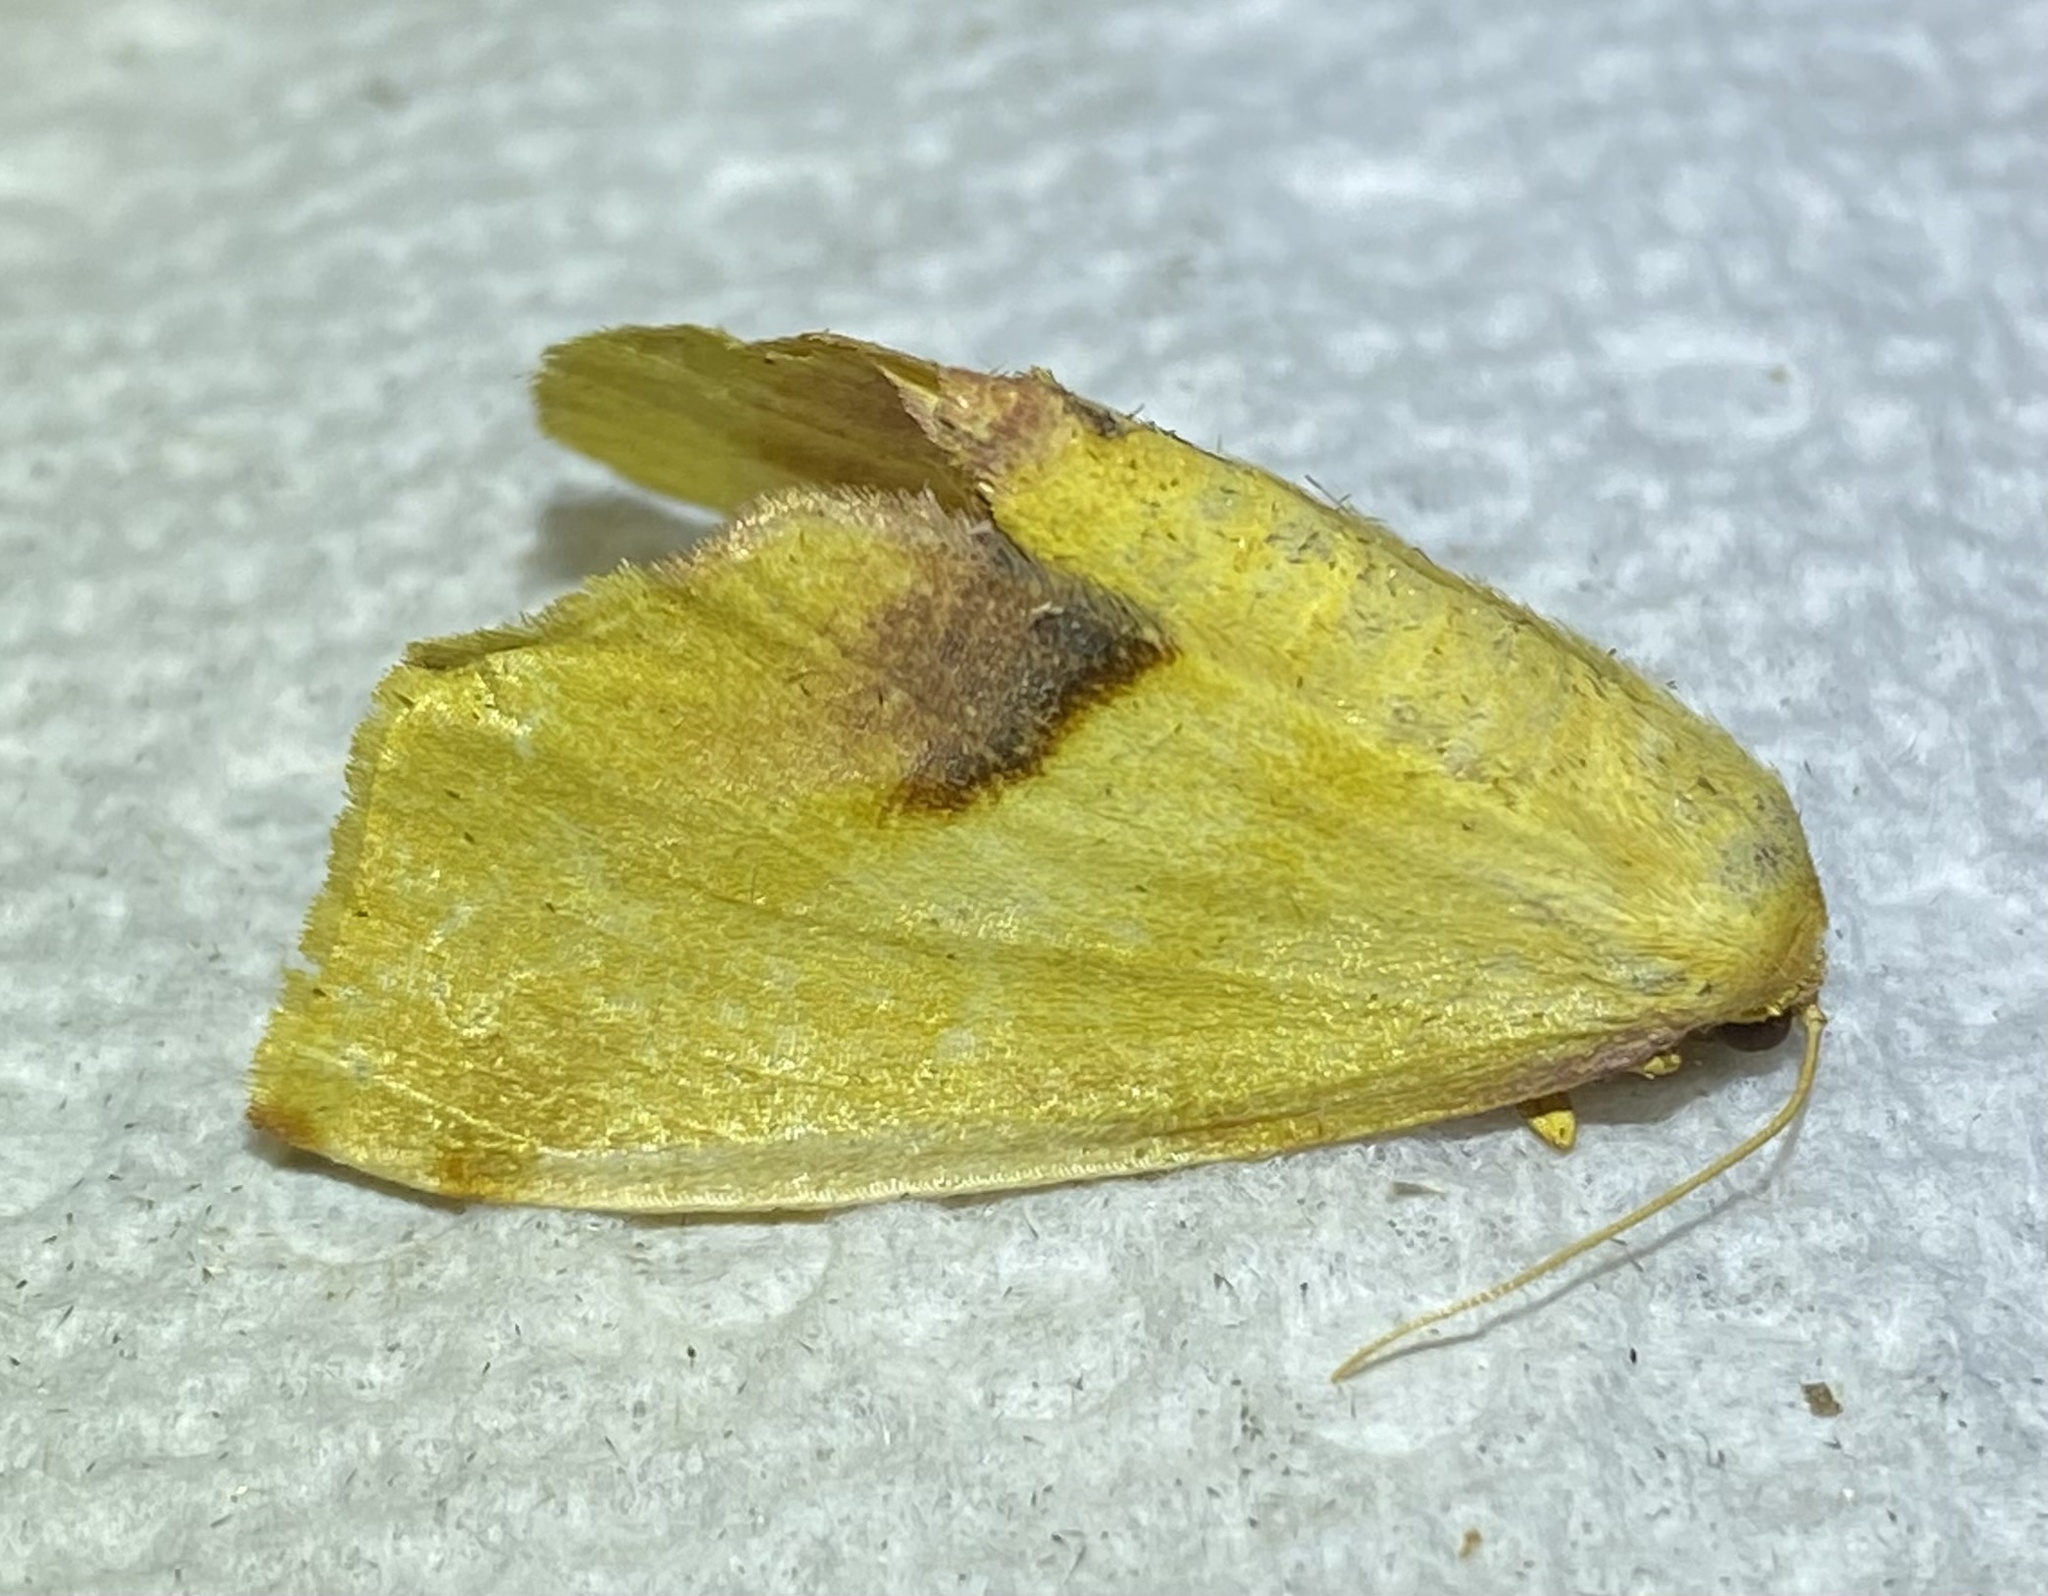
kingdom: Animalia
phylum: Arthropoda
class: Insecta
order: Lepidoptera
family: Geometridae
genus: Plagodis
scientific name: Plagodis serinaria
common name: Lemon plagodis
